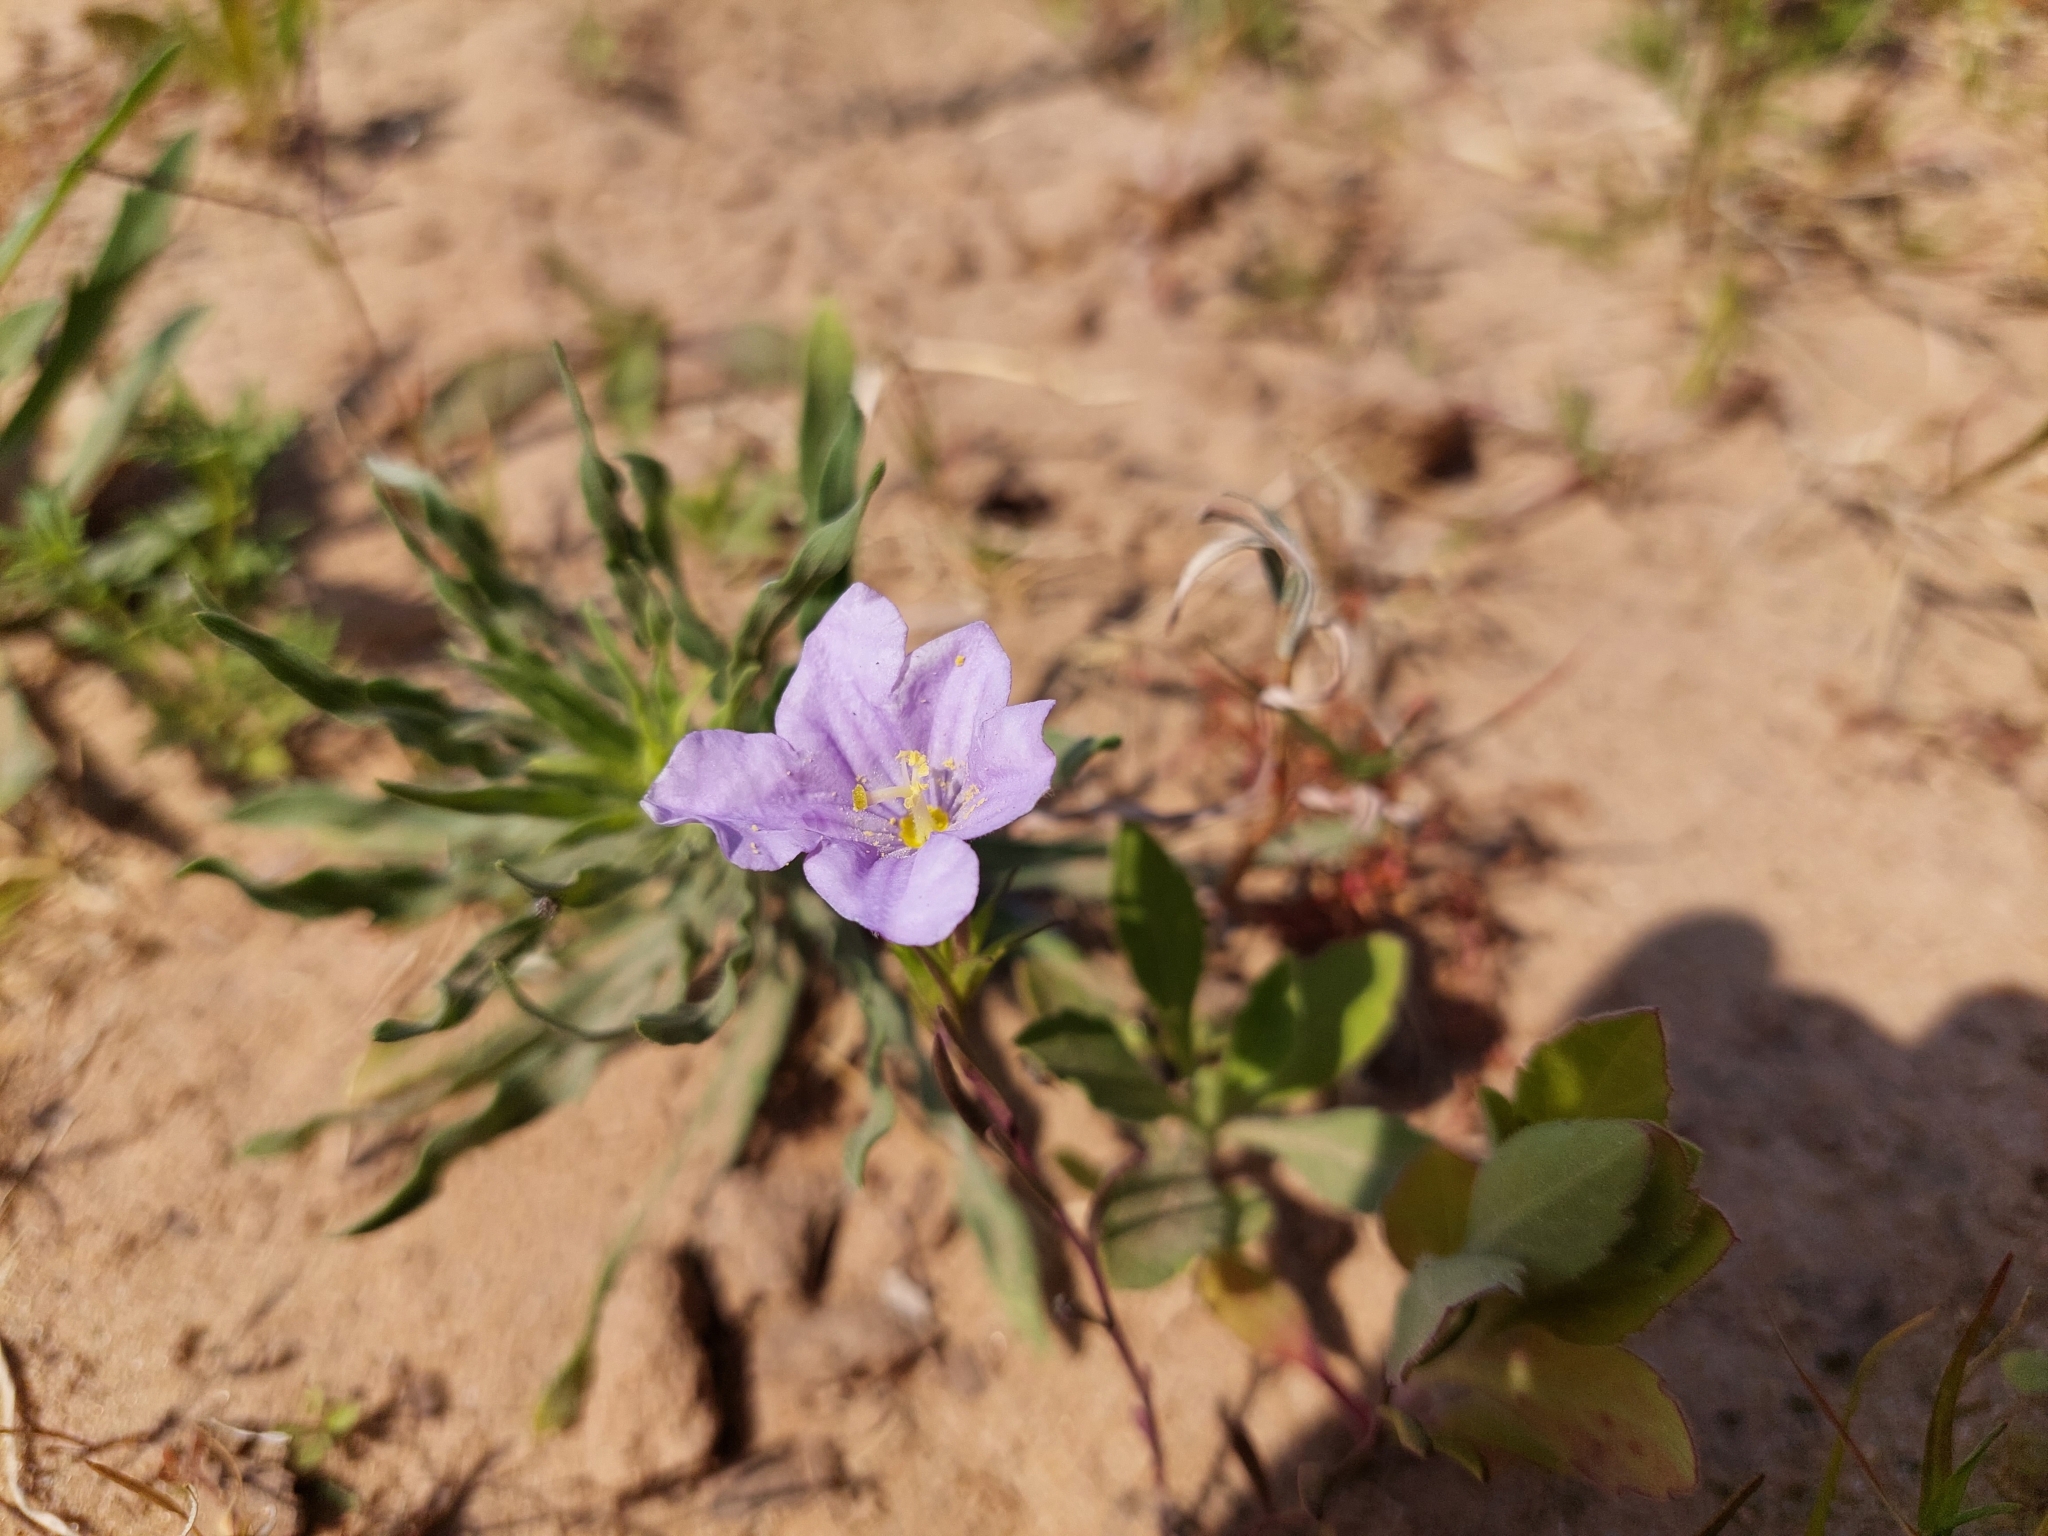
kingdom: Plantae
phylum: Tracheophyta
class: Magnoliopsida
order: Solanales
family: Solanaceae
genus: Nierembergia
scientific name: Nierembergia aristata
